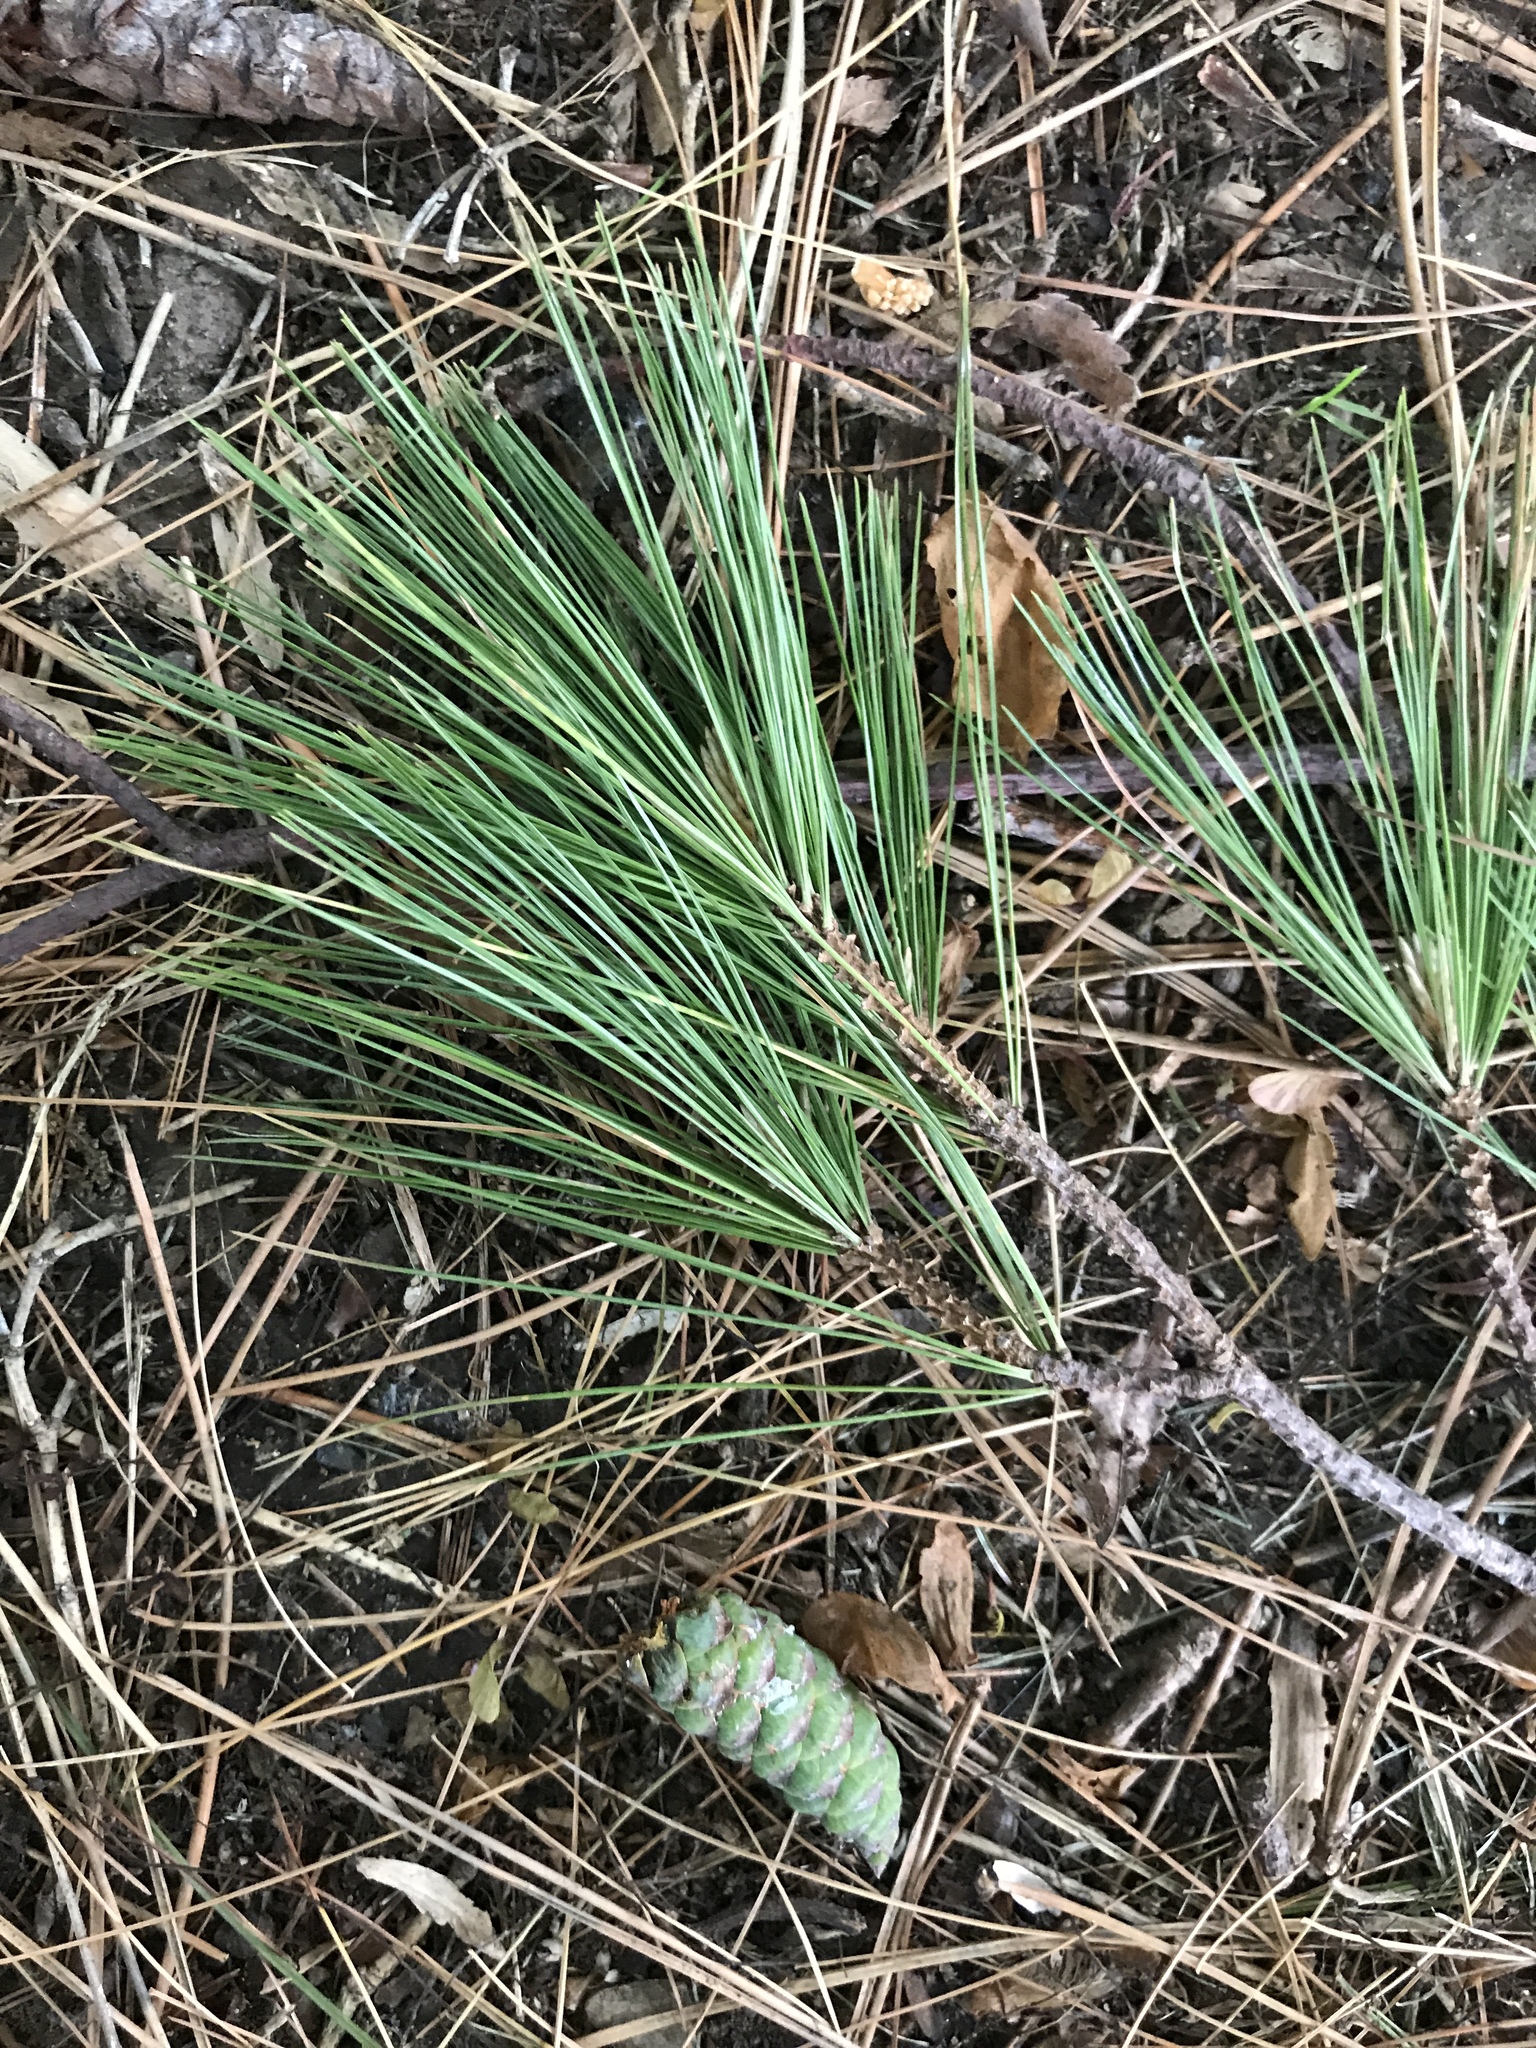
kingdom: Plantae
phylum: Tracheophyta
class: Pinopsida
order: Pinales
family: Pinaceae
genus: Pinus
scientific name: Pinus strobus
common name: Weymouth pine
